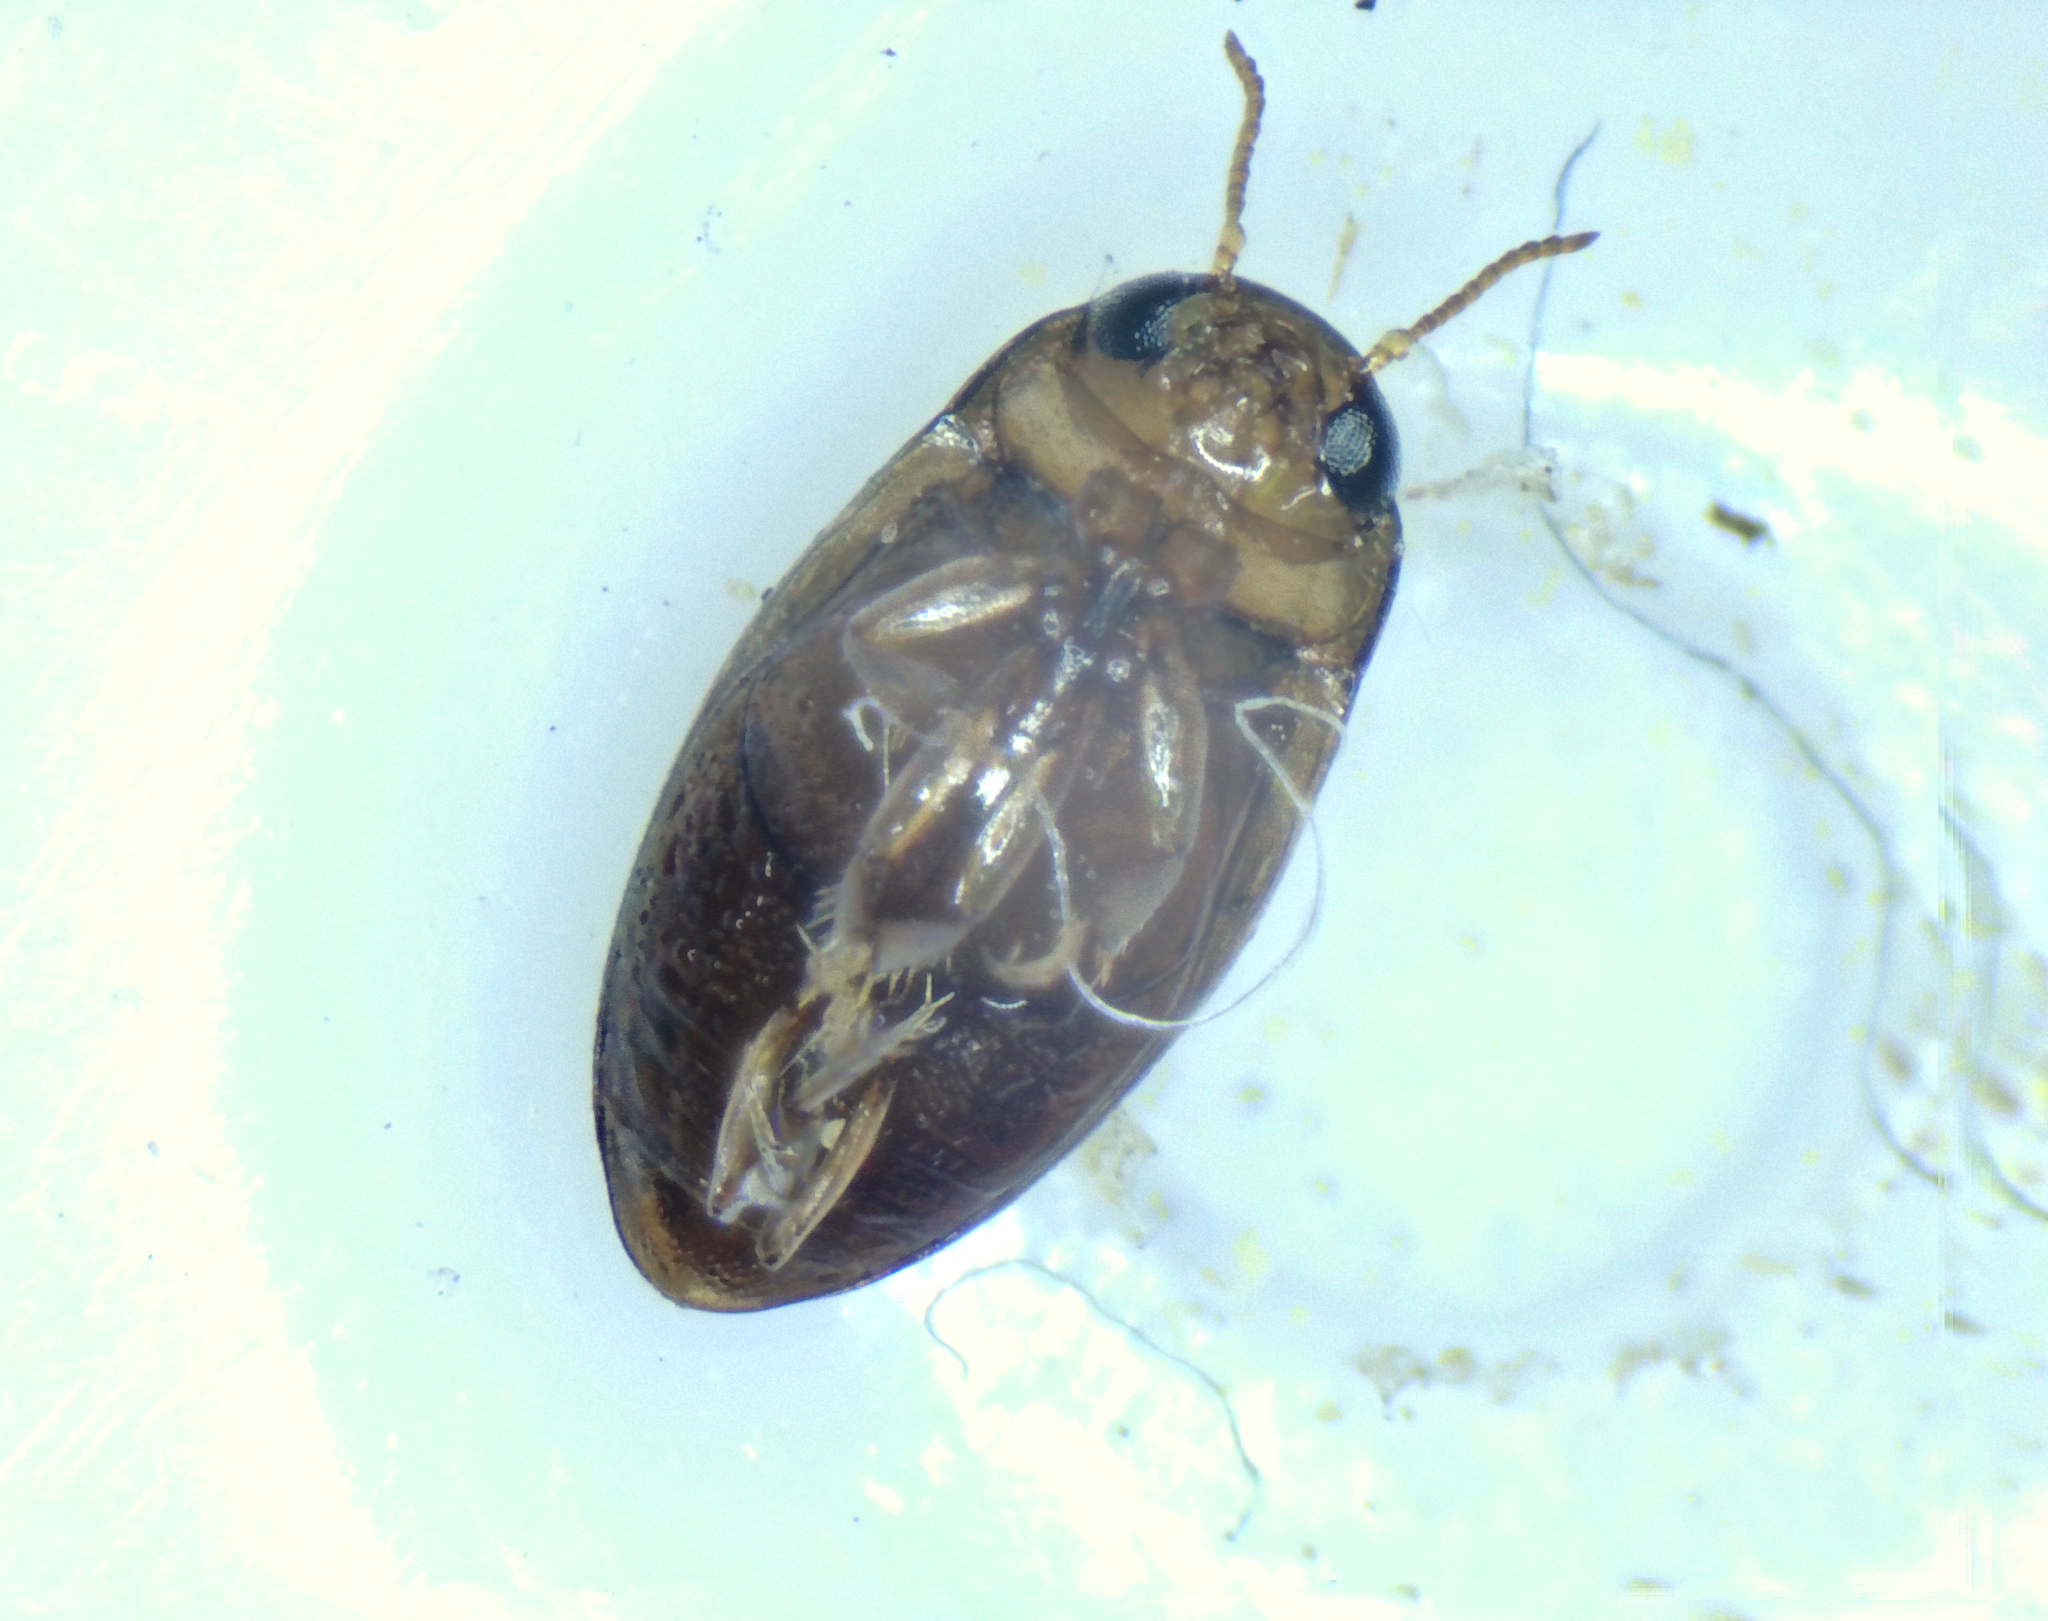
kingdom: Animalia
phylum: Arthropoda
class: Insecta
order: Coleoptera
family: Dytiscidae
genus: Neobidessus
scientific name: Neobidessus pullus
